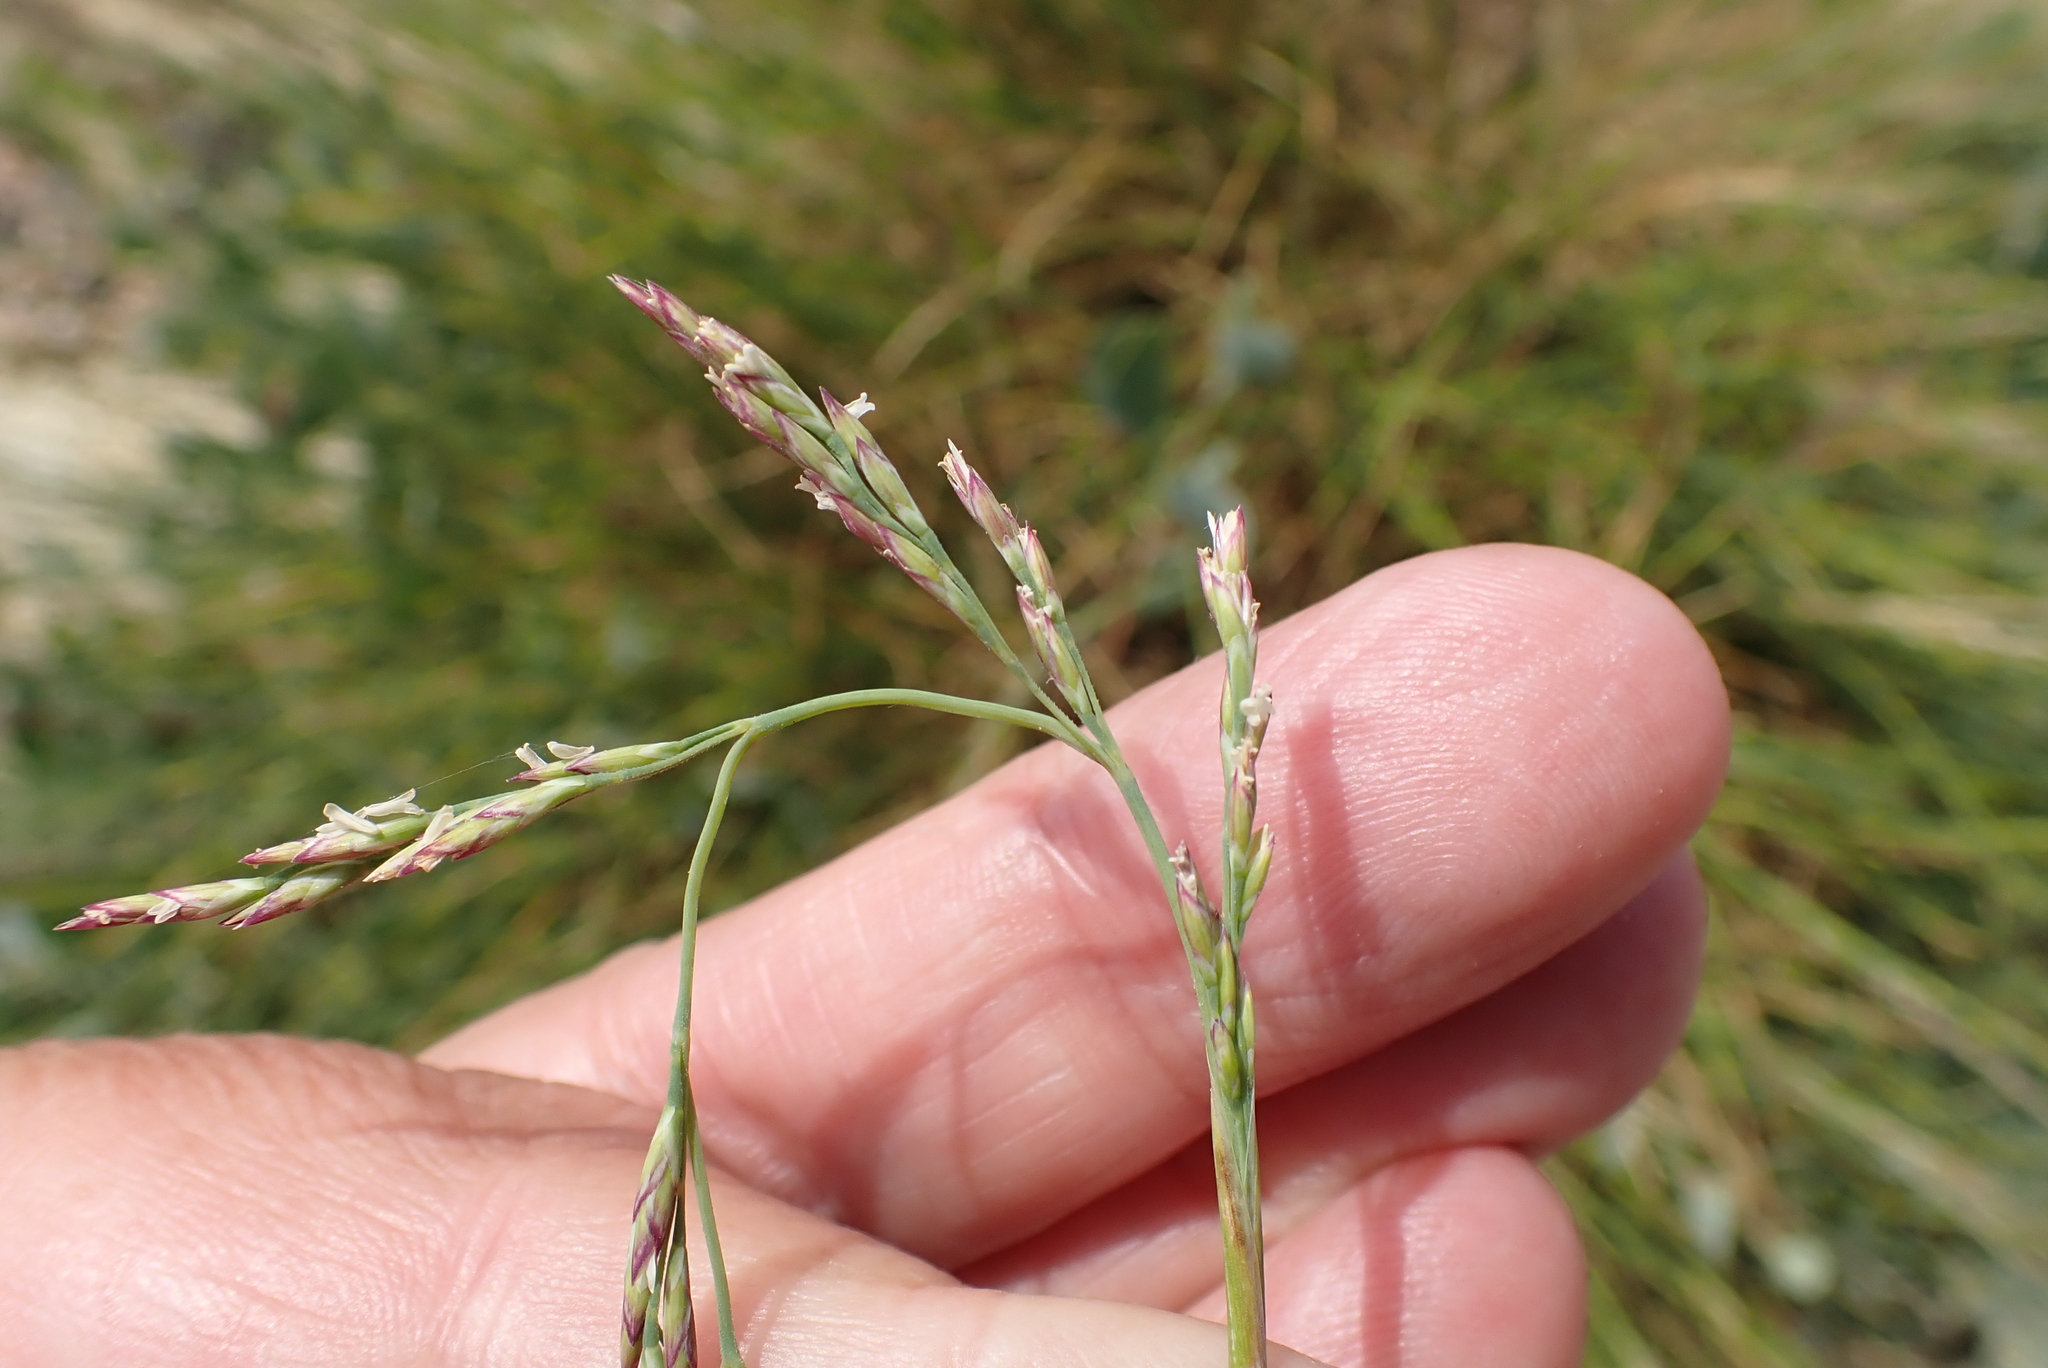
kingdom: Plantae
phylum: Tracheophyta
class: Liliopsida
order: Poales
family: Poaceae
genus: Puccinellia
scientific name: Puccinellia distans
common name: Weeping alkaligrass
